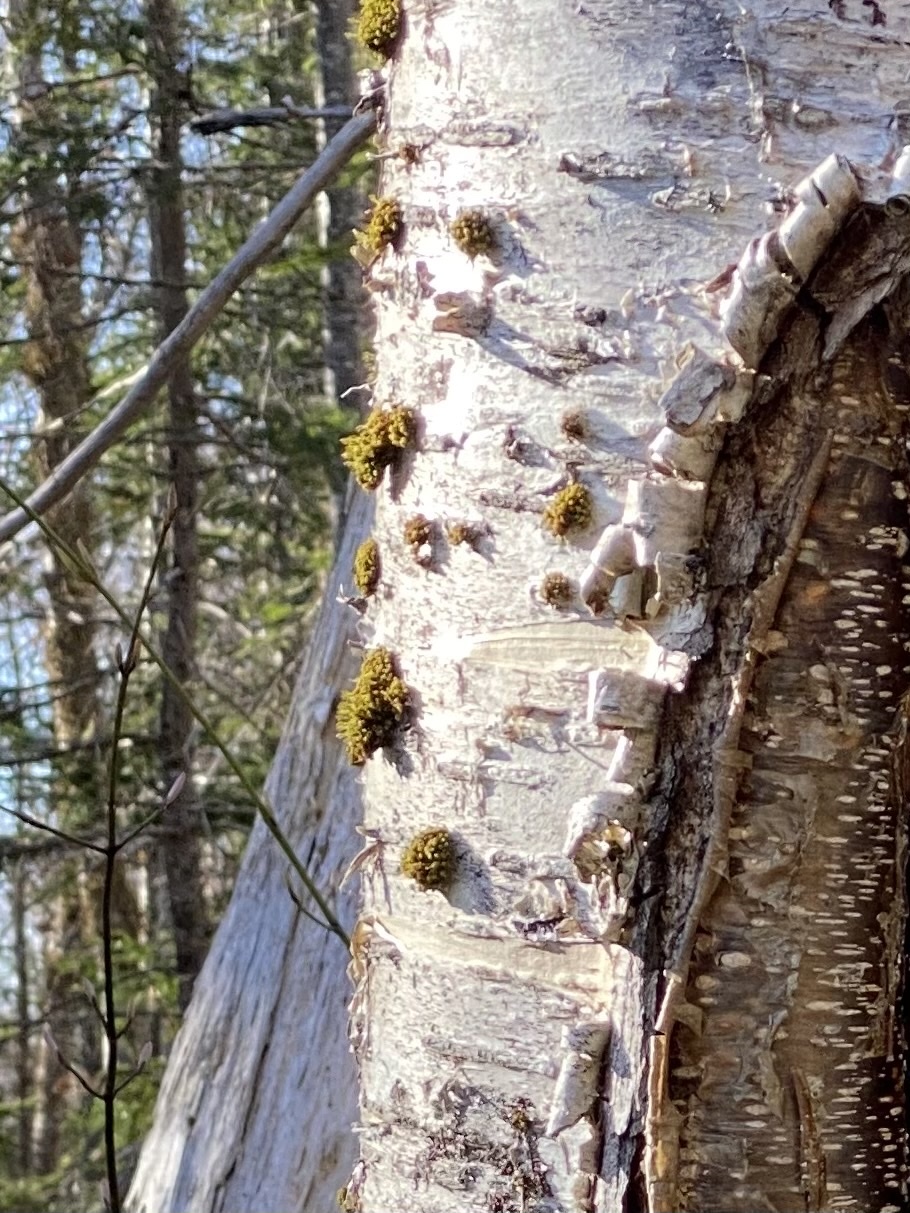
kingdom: Plantae
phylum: Bryophyta
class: Bryopsida
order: Orthotrichales
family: Orthotrichaceae
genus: Ulota
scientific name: Ulota crispa
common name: Crisped pincushion moss
